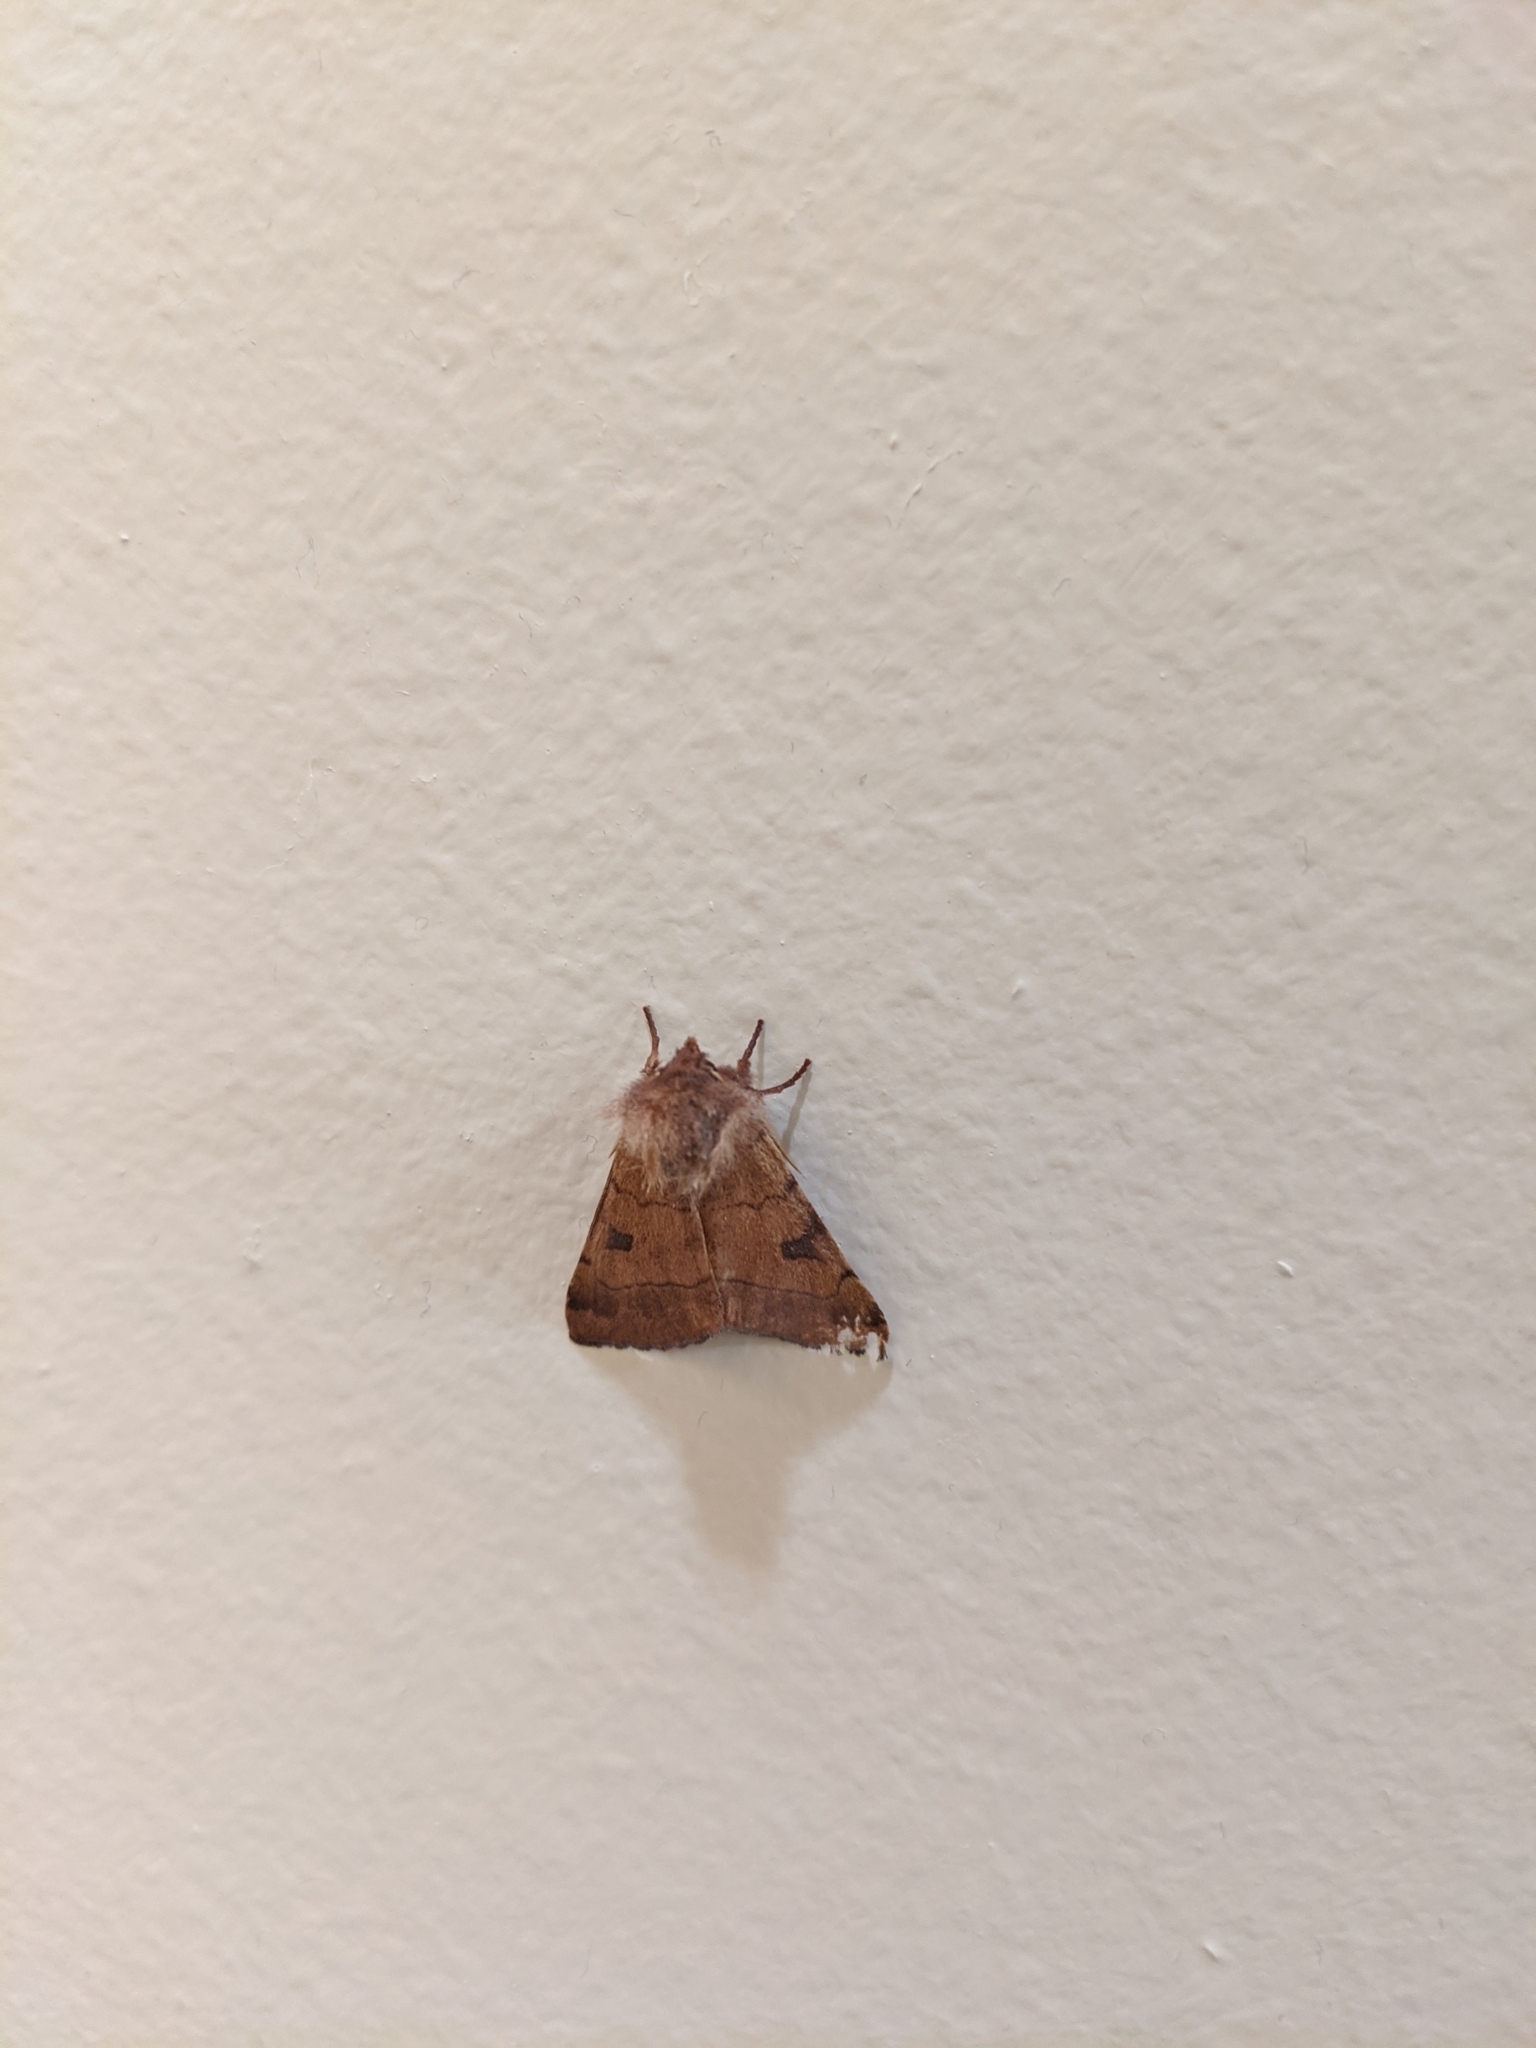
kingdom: Animalia
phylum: Arthropoda
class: Insecta
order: Lepidoptera
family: Noctuidae
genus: Choephora
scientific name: Choephora fungorum
